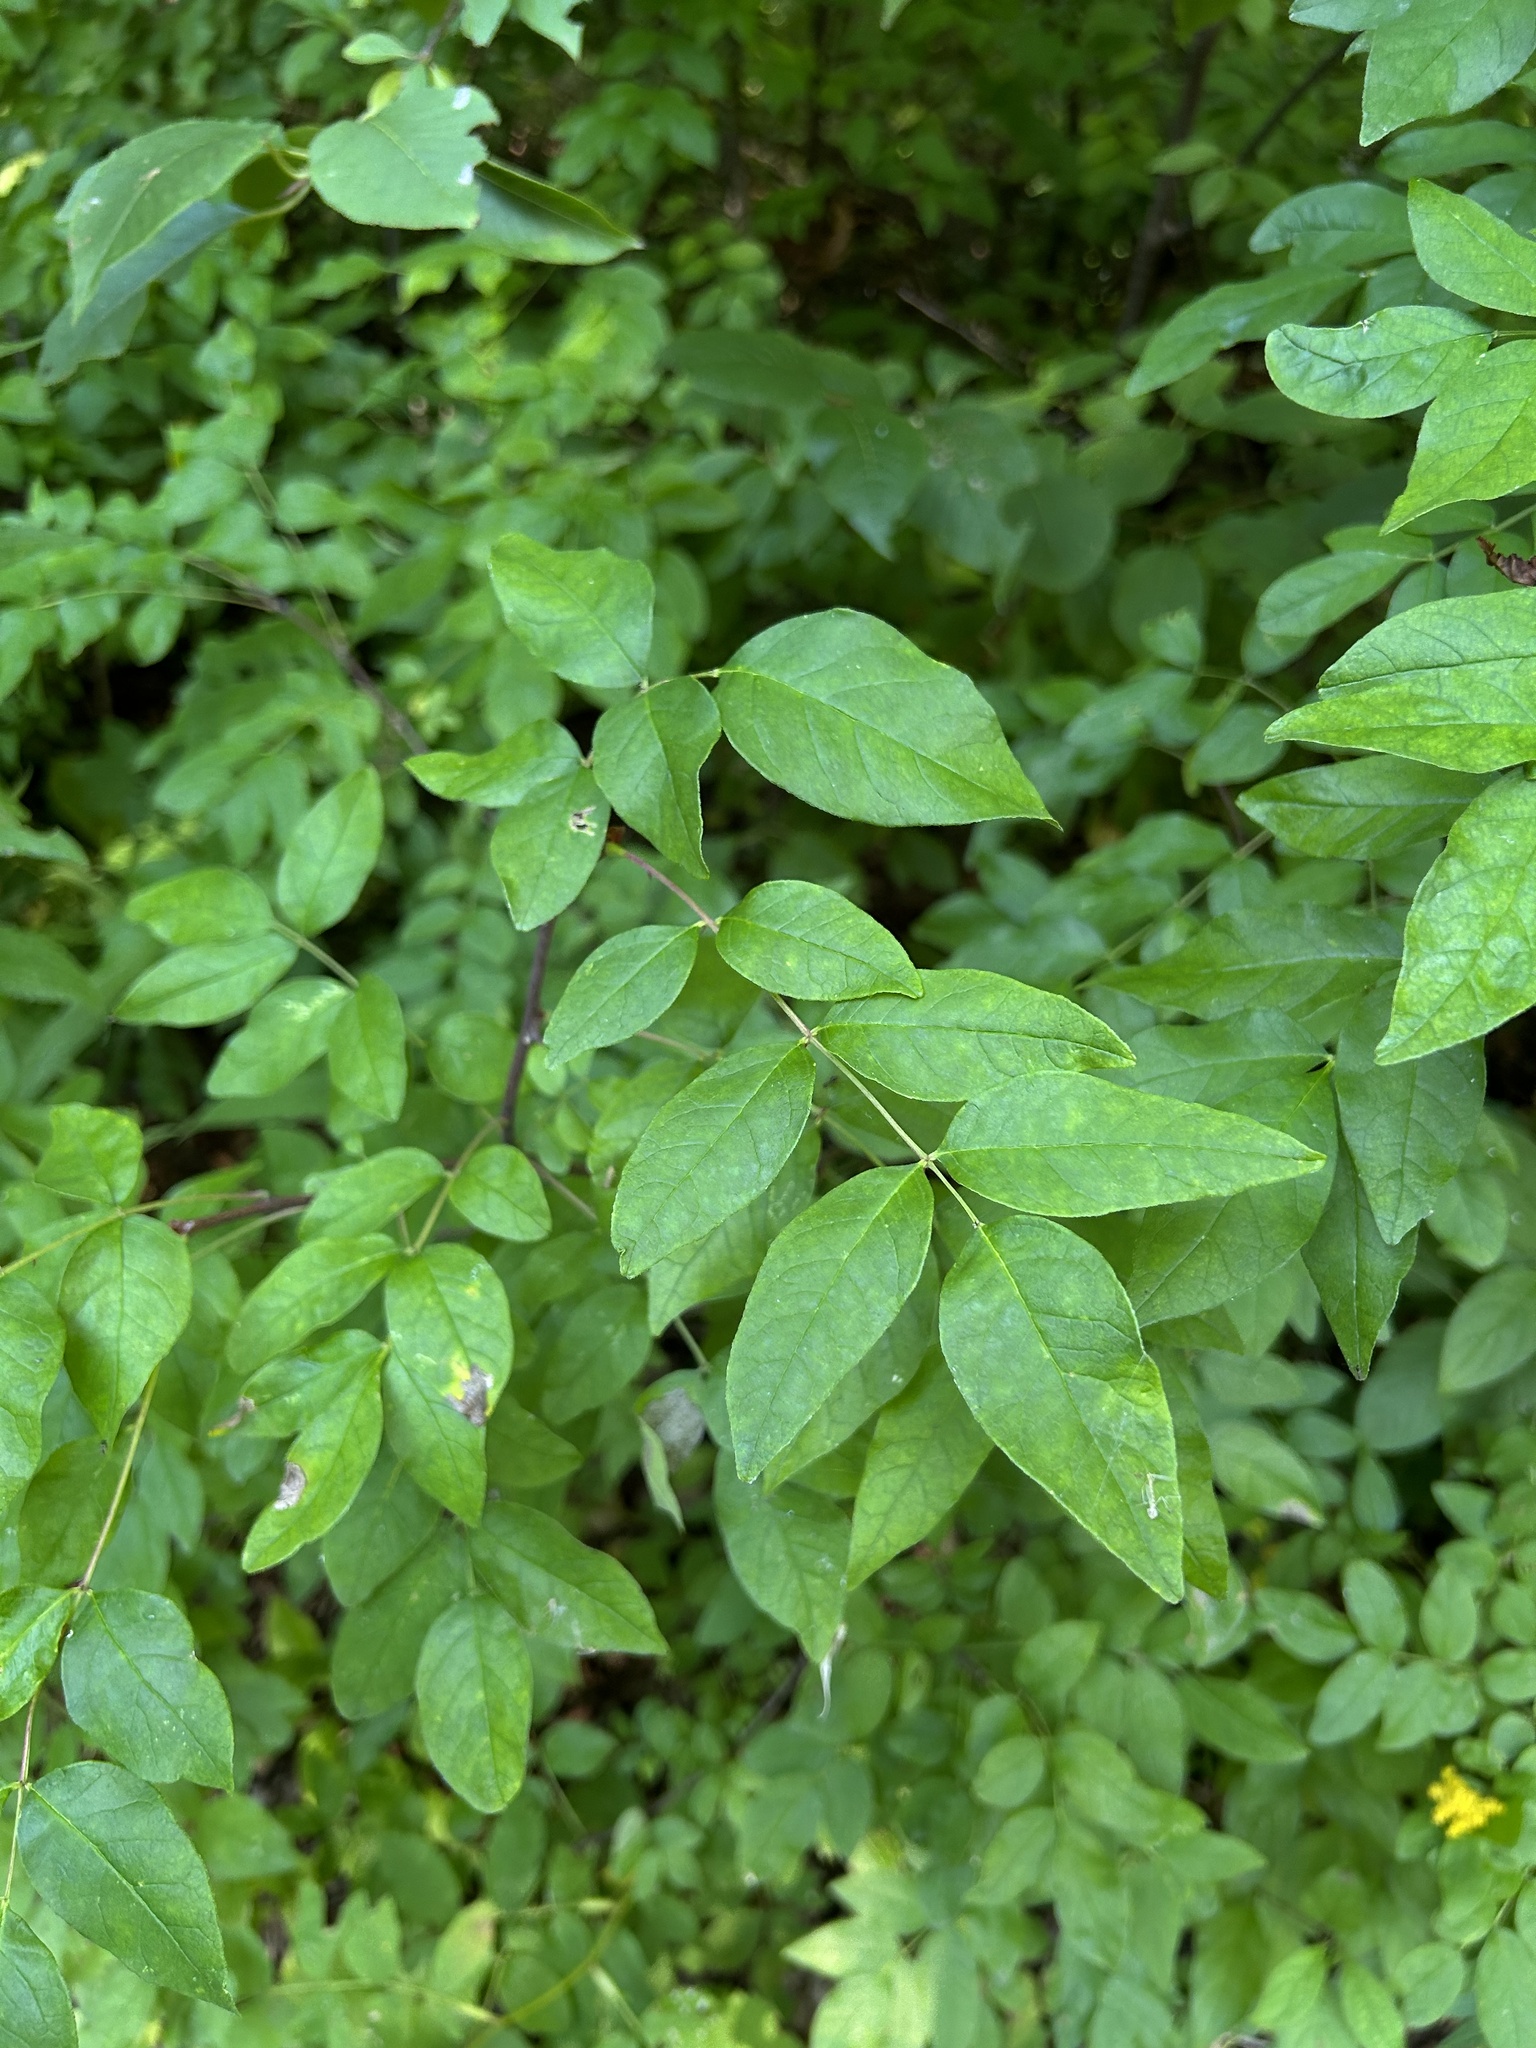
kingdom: Plantae
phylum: Tracheophyta
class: Magnoliopsida
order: Sapindales
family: Rutaceae
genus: Zanthoxylum
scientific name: Zanthoxylum americanum
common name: Northern prickly-ash
